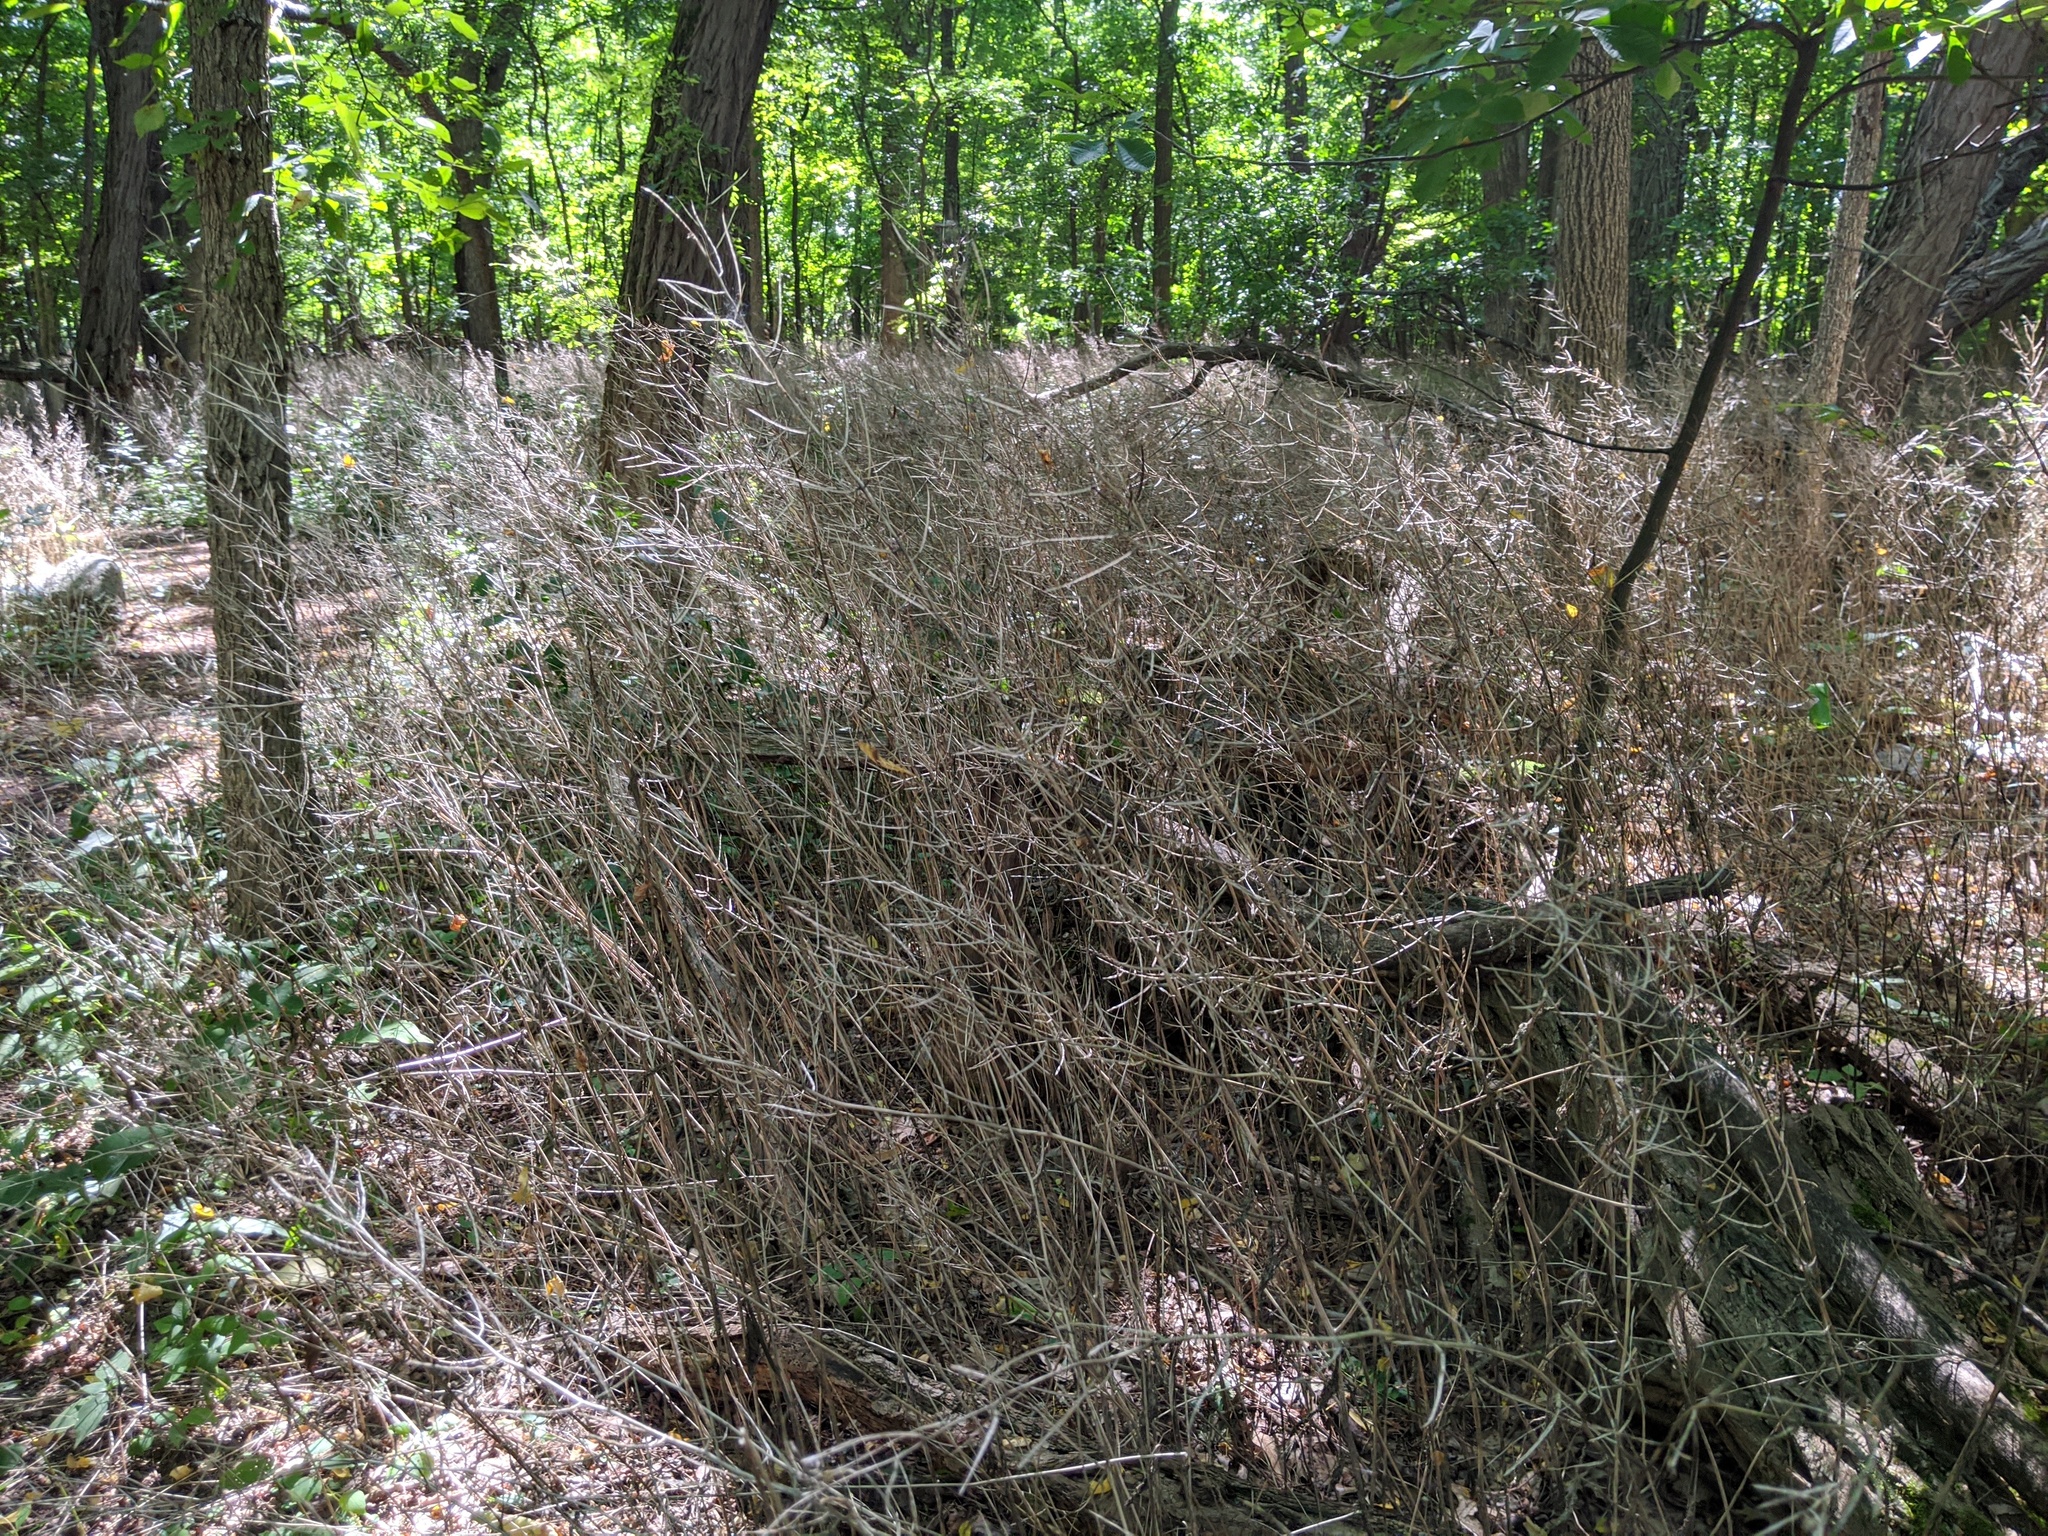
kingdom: Plantae
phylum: Tracheophyta
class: Magnoliopsida
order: Brassicales
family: Brassicaceae
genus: Alliaria
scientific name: Alliaria petiolata
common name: Garlic mustard
